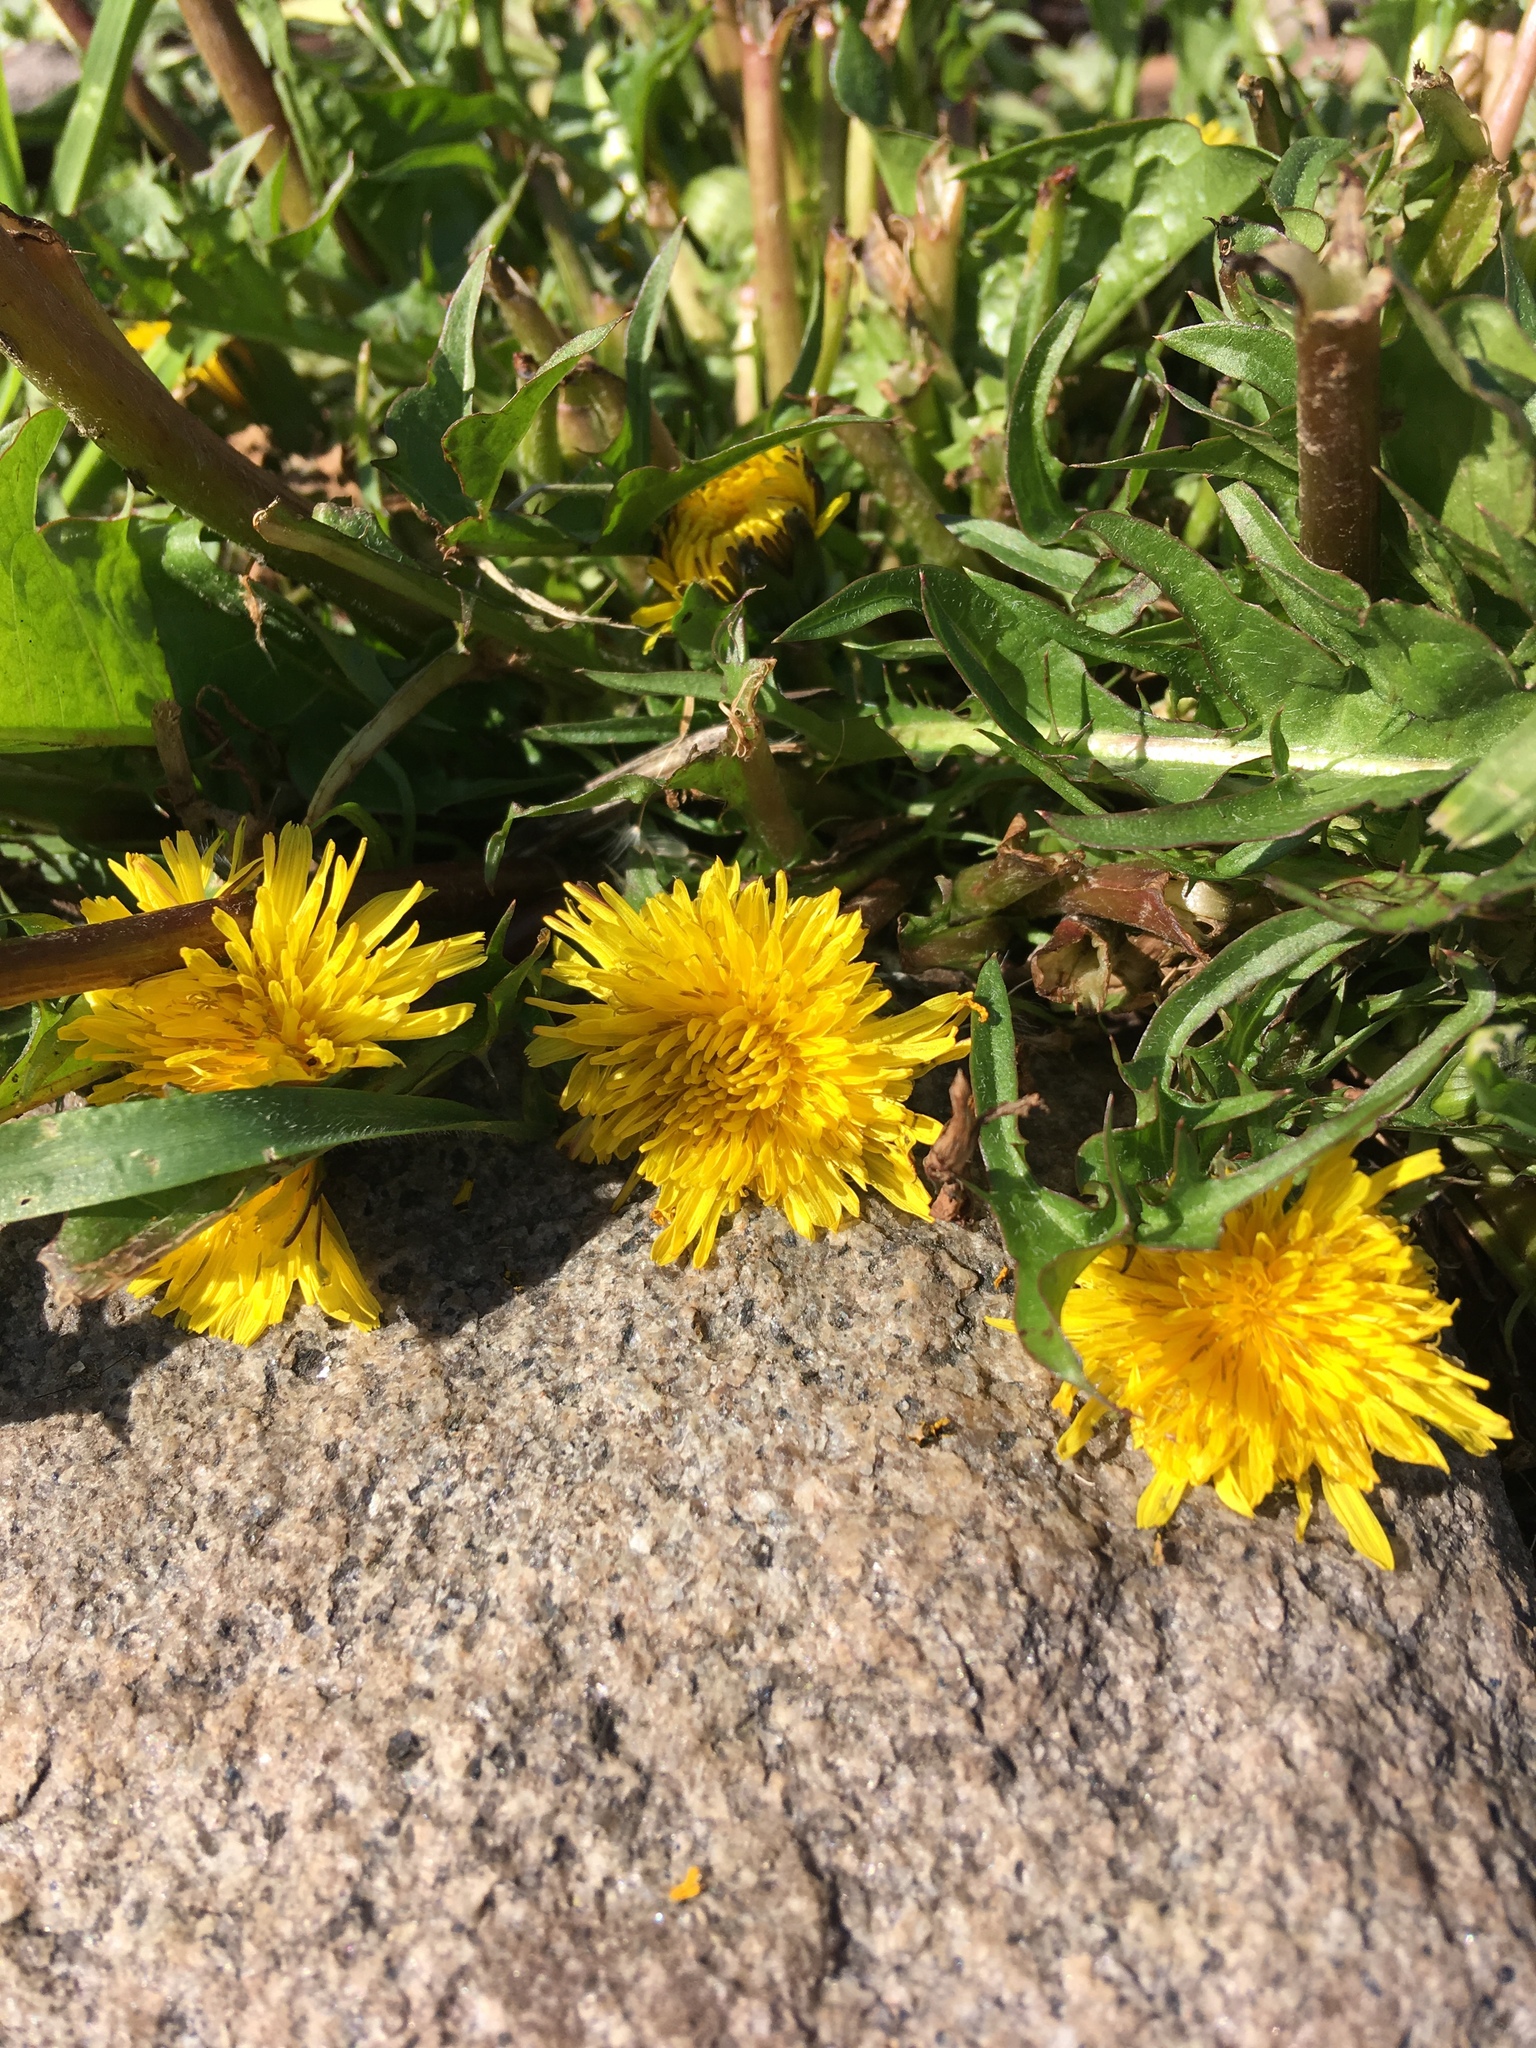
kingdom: Plantae
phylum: Tracheophyta
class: Magnoliopsida
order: Asterales
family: Asteraceae
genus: Taraxacum
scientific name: Taraxacum officinale
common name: Common dandelion
